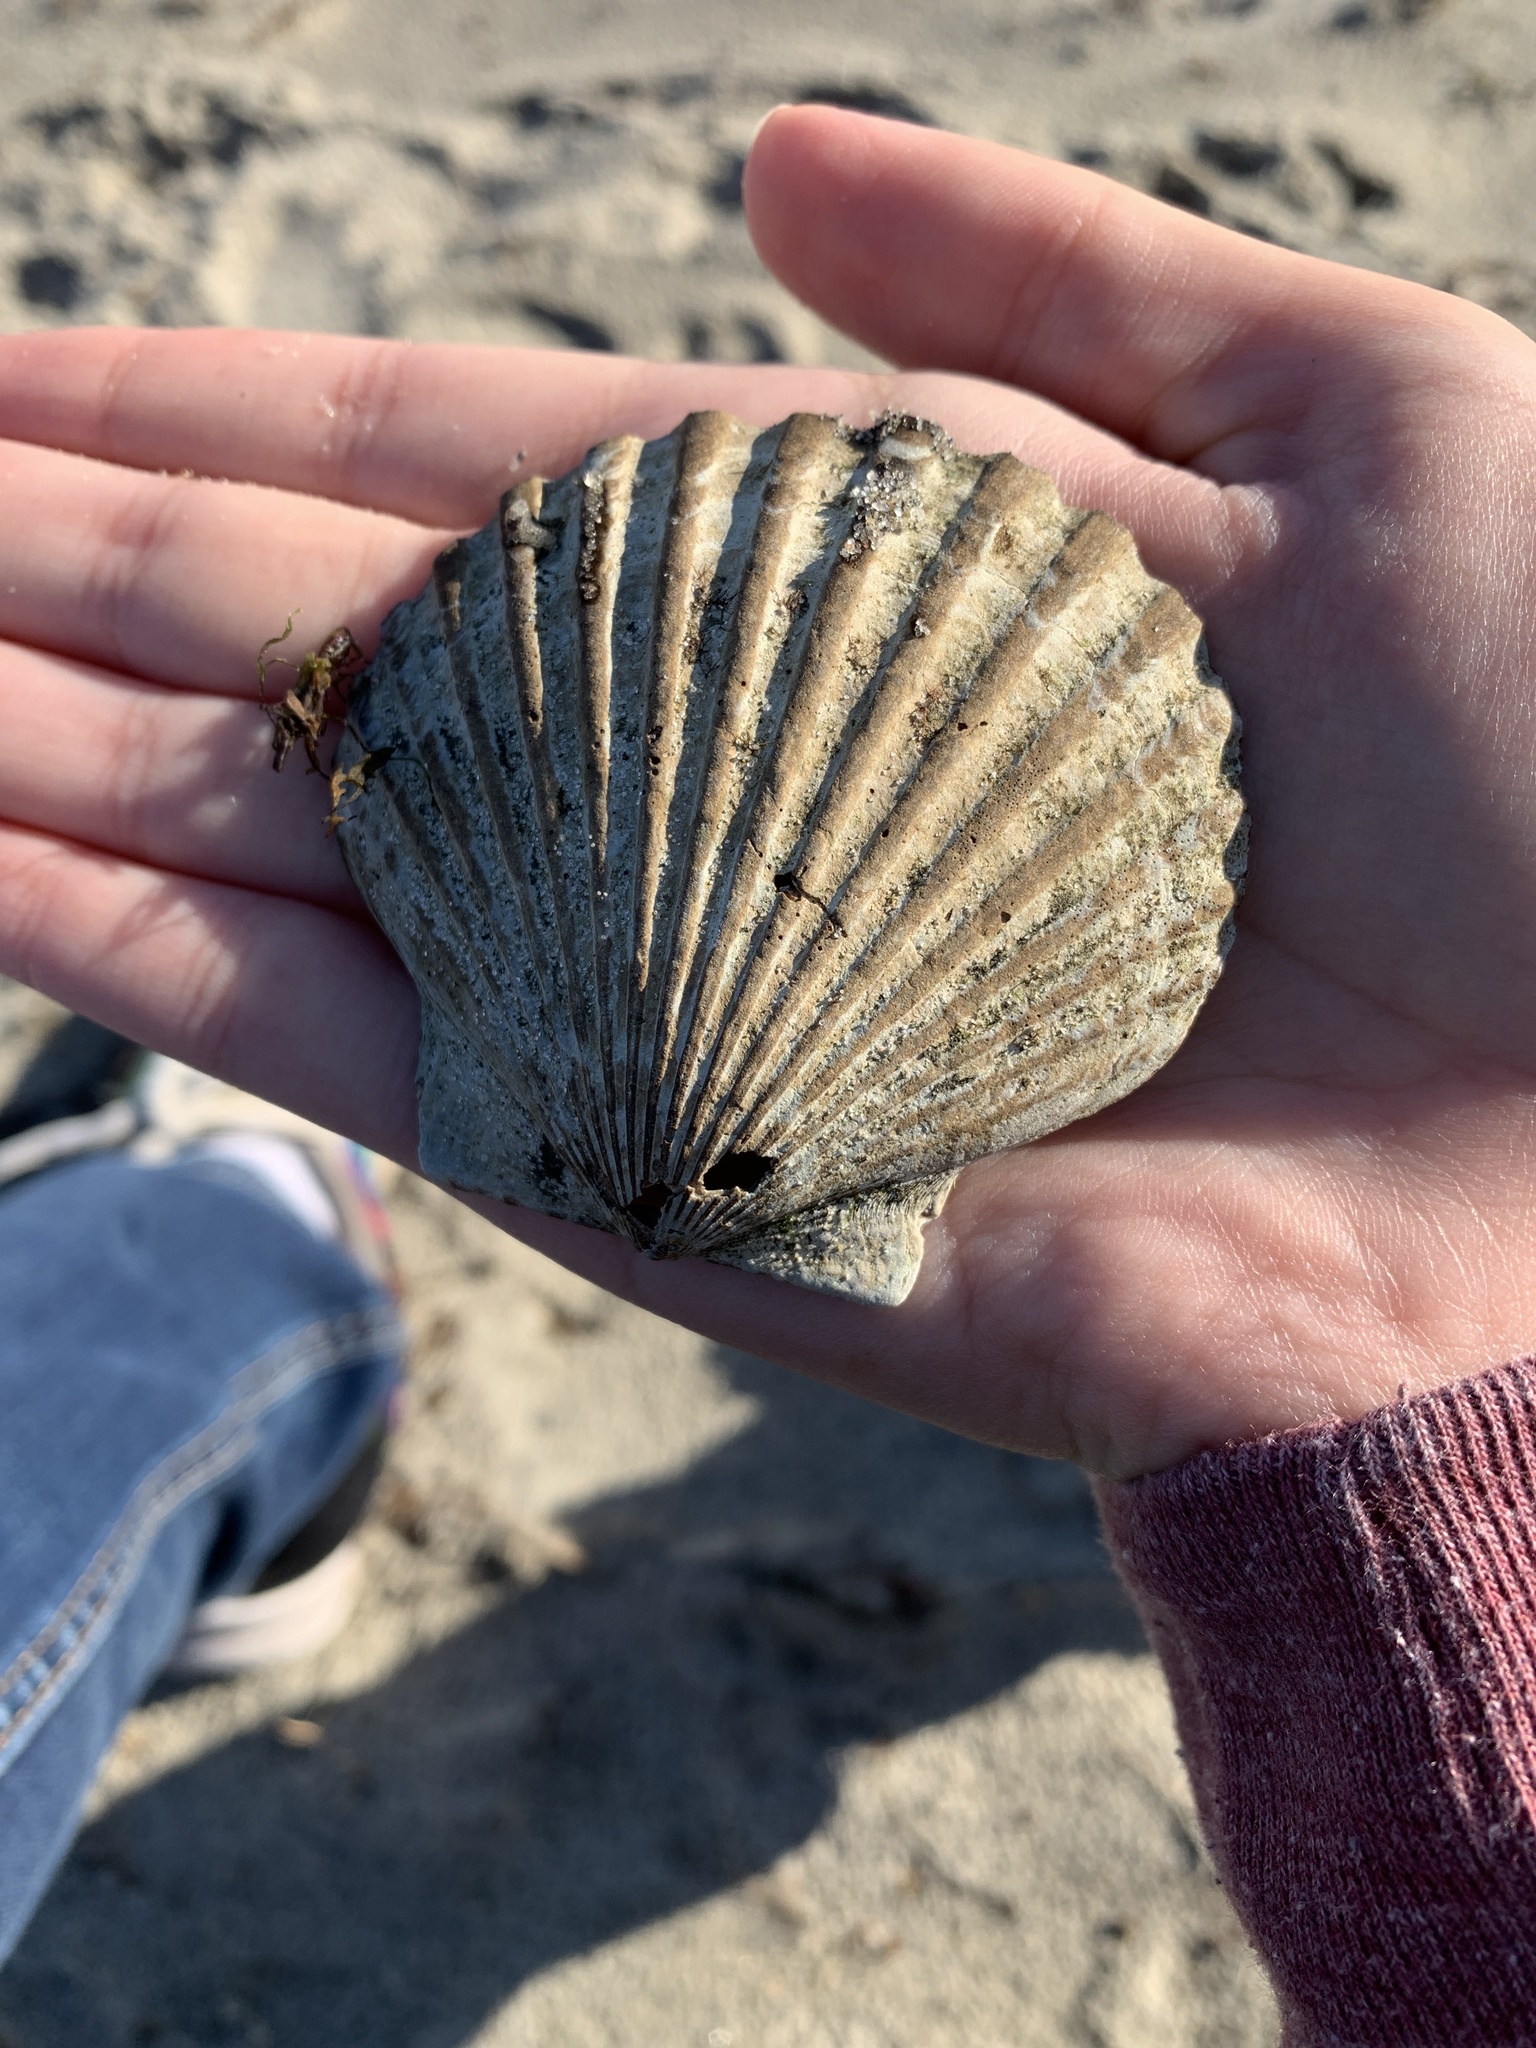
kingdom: Animalia
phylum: Mollusca
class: Bivalvia
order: Pectinida
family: Pectinidae
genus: Argopecten
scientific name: Argopecten irradians
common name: Atlantic bay scallop
